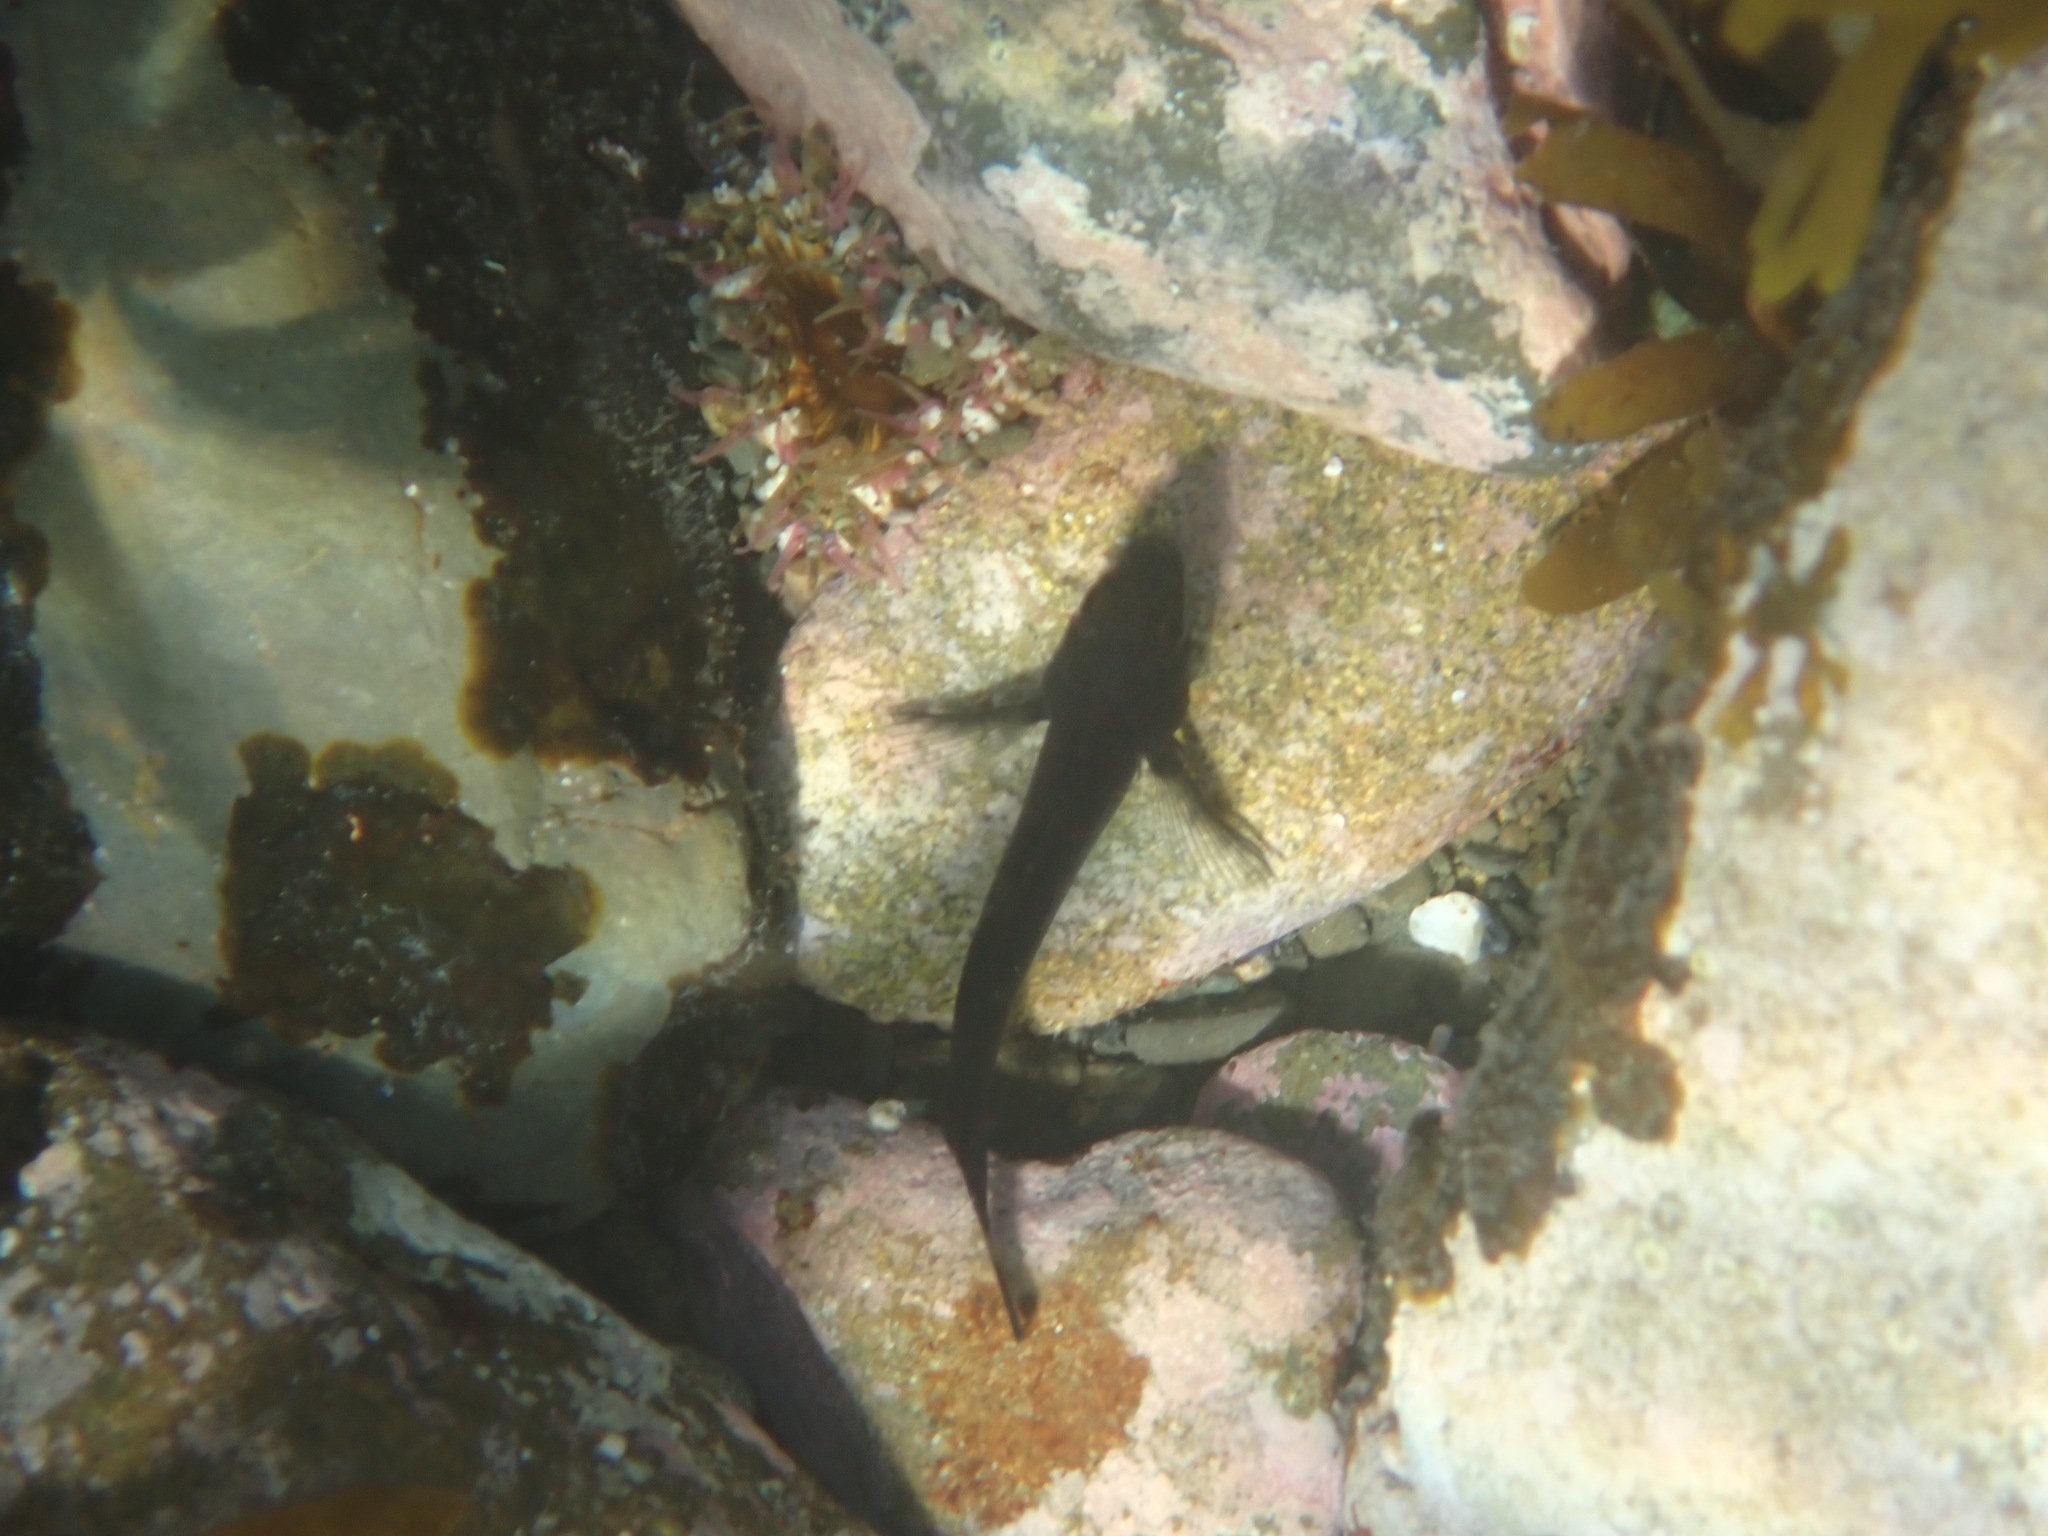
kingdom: Animalia
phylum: Chordata
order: Perciformes
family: Tripterygiidae
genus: Forsterygion
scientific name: Forsterygion lapillum
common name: Common triplefin
